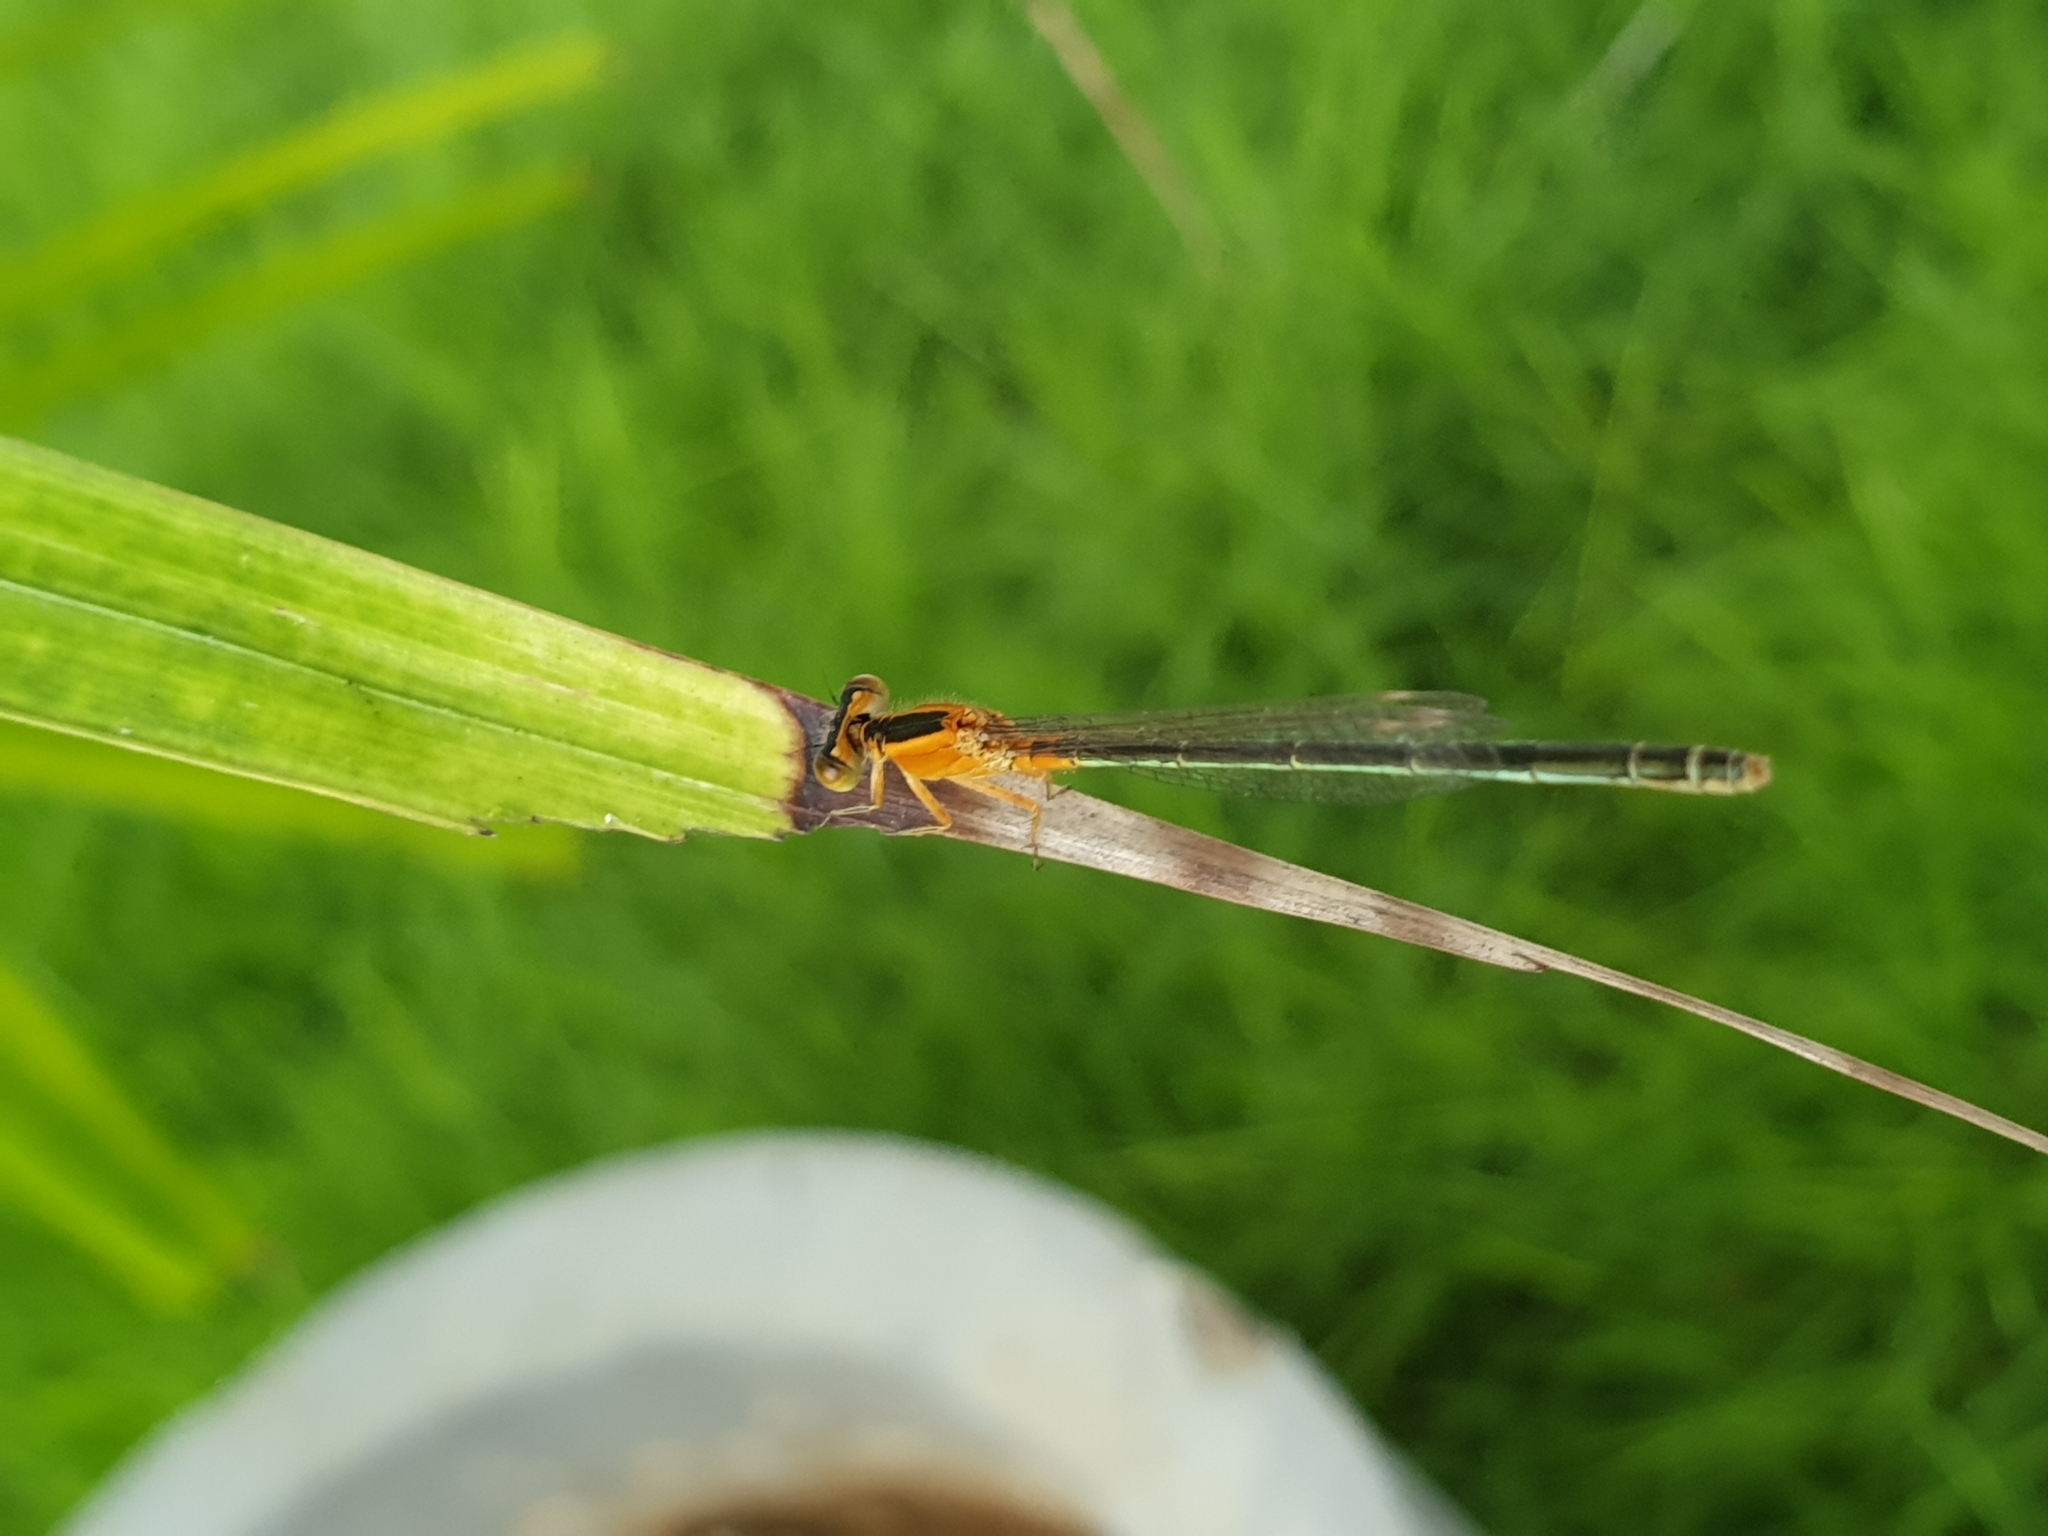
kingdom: Animalia
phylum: Arthropoda
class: Insecta
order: Odonata
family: Coenagrionidae
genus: Ischnura
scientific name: Ischnura senegalensis
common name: Tropical bluetail
